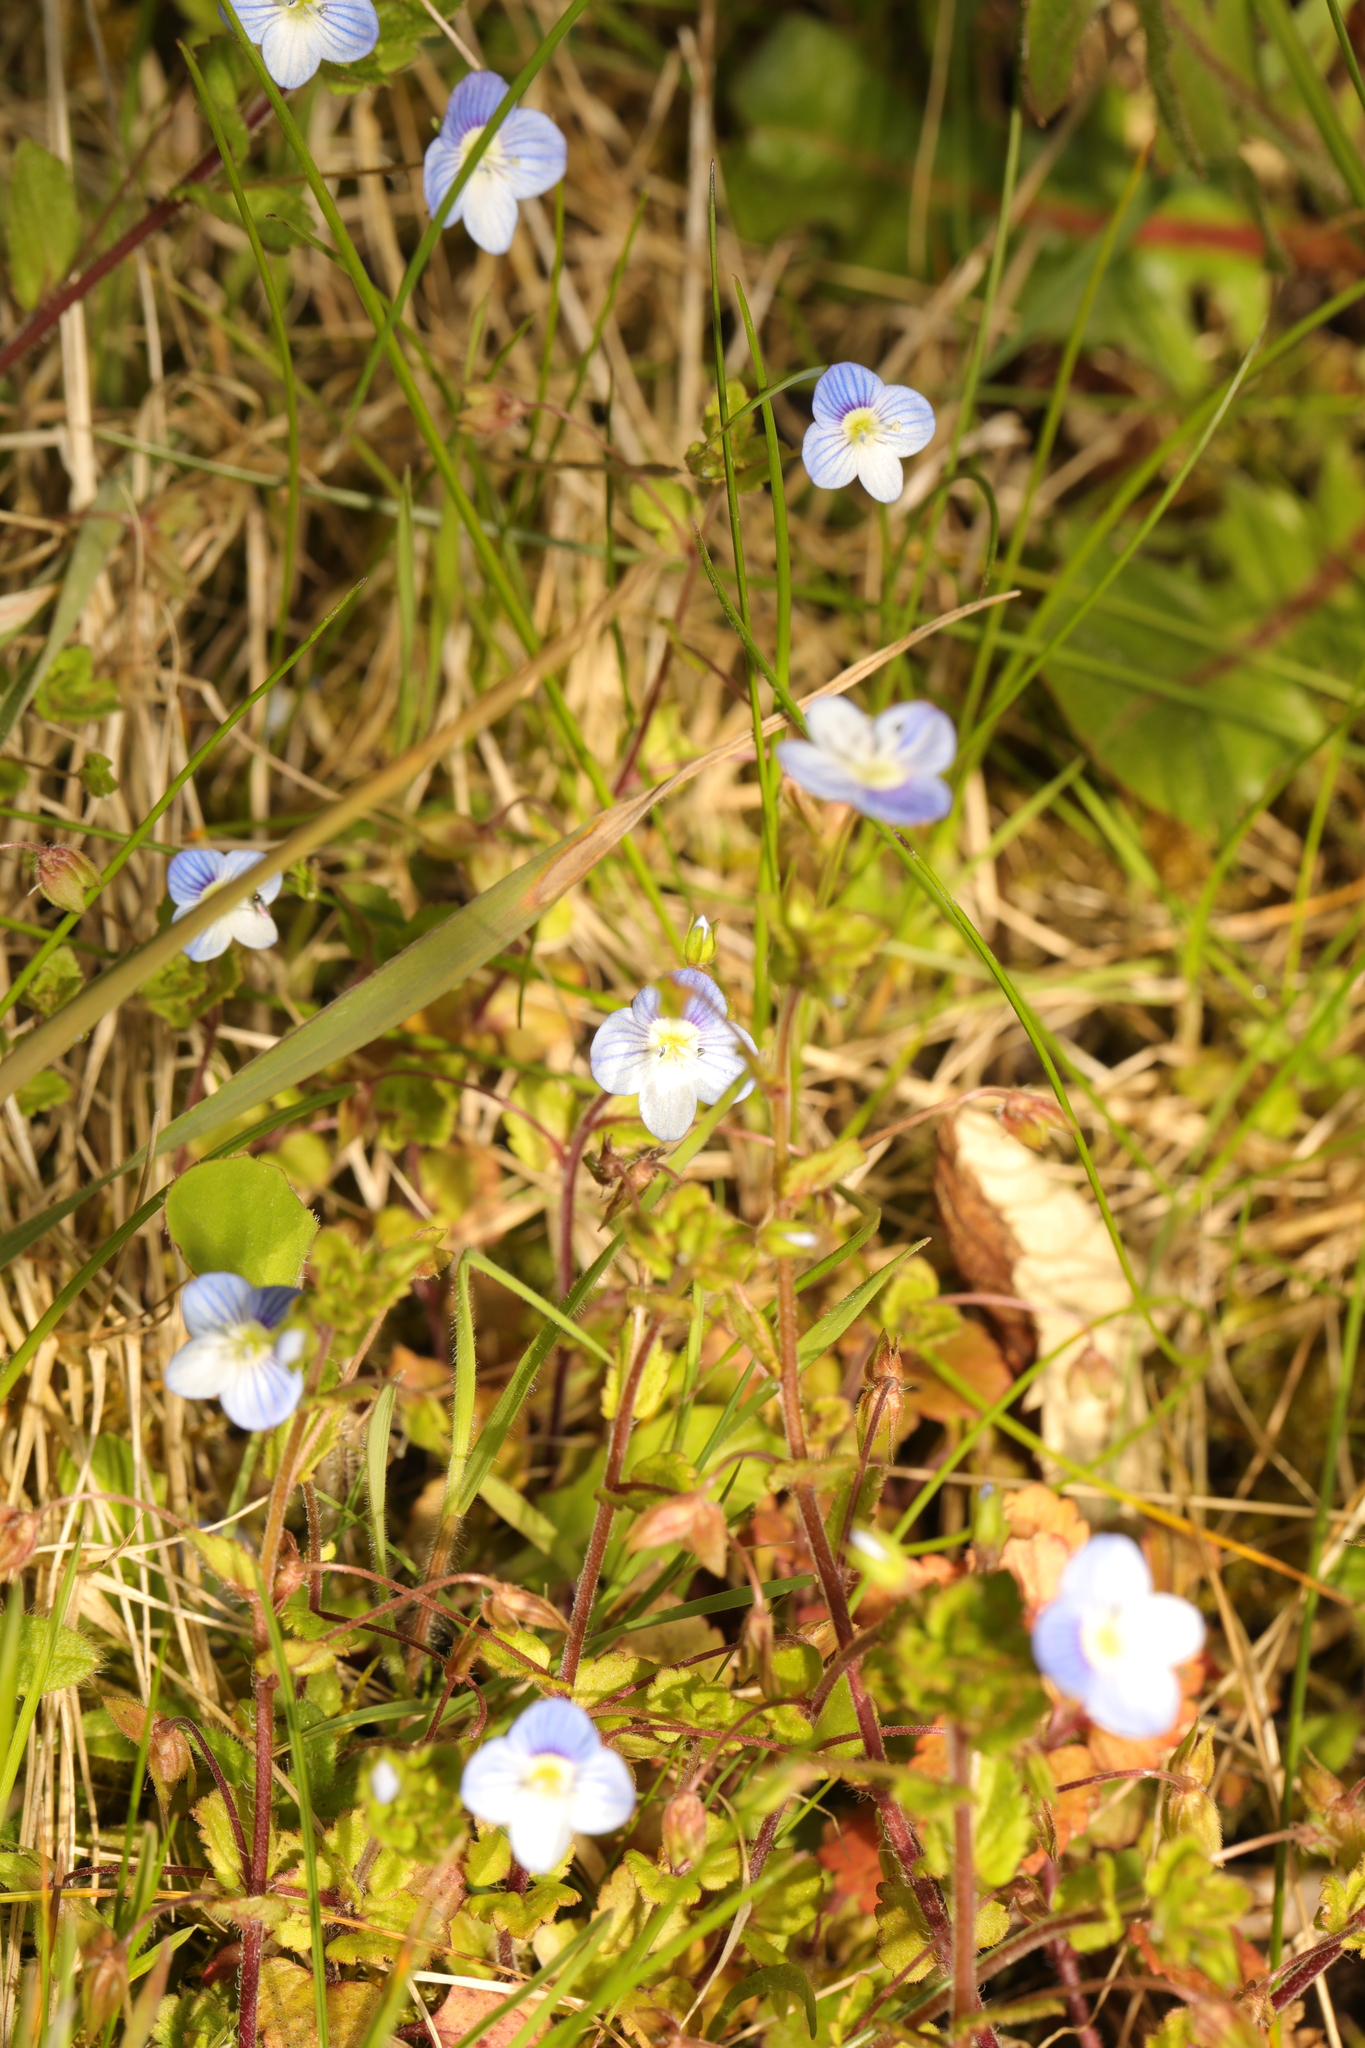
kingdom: Plantae
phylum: Tracheophyta
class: Magnoliopsida
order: Lamiales
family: Plantaginaceae
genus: Veronica
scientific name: Veronica persica
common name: Common field-speedwell
